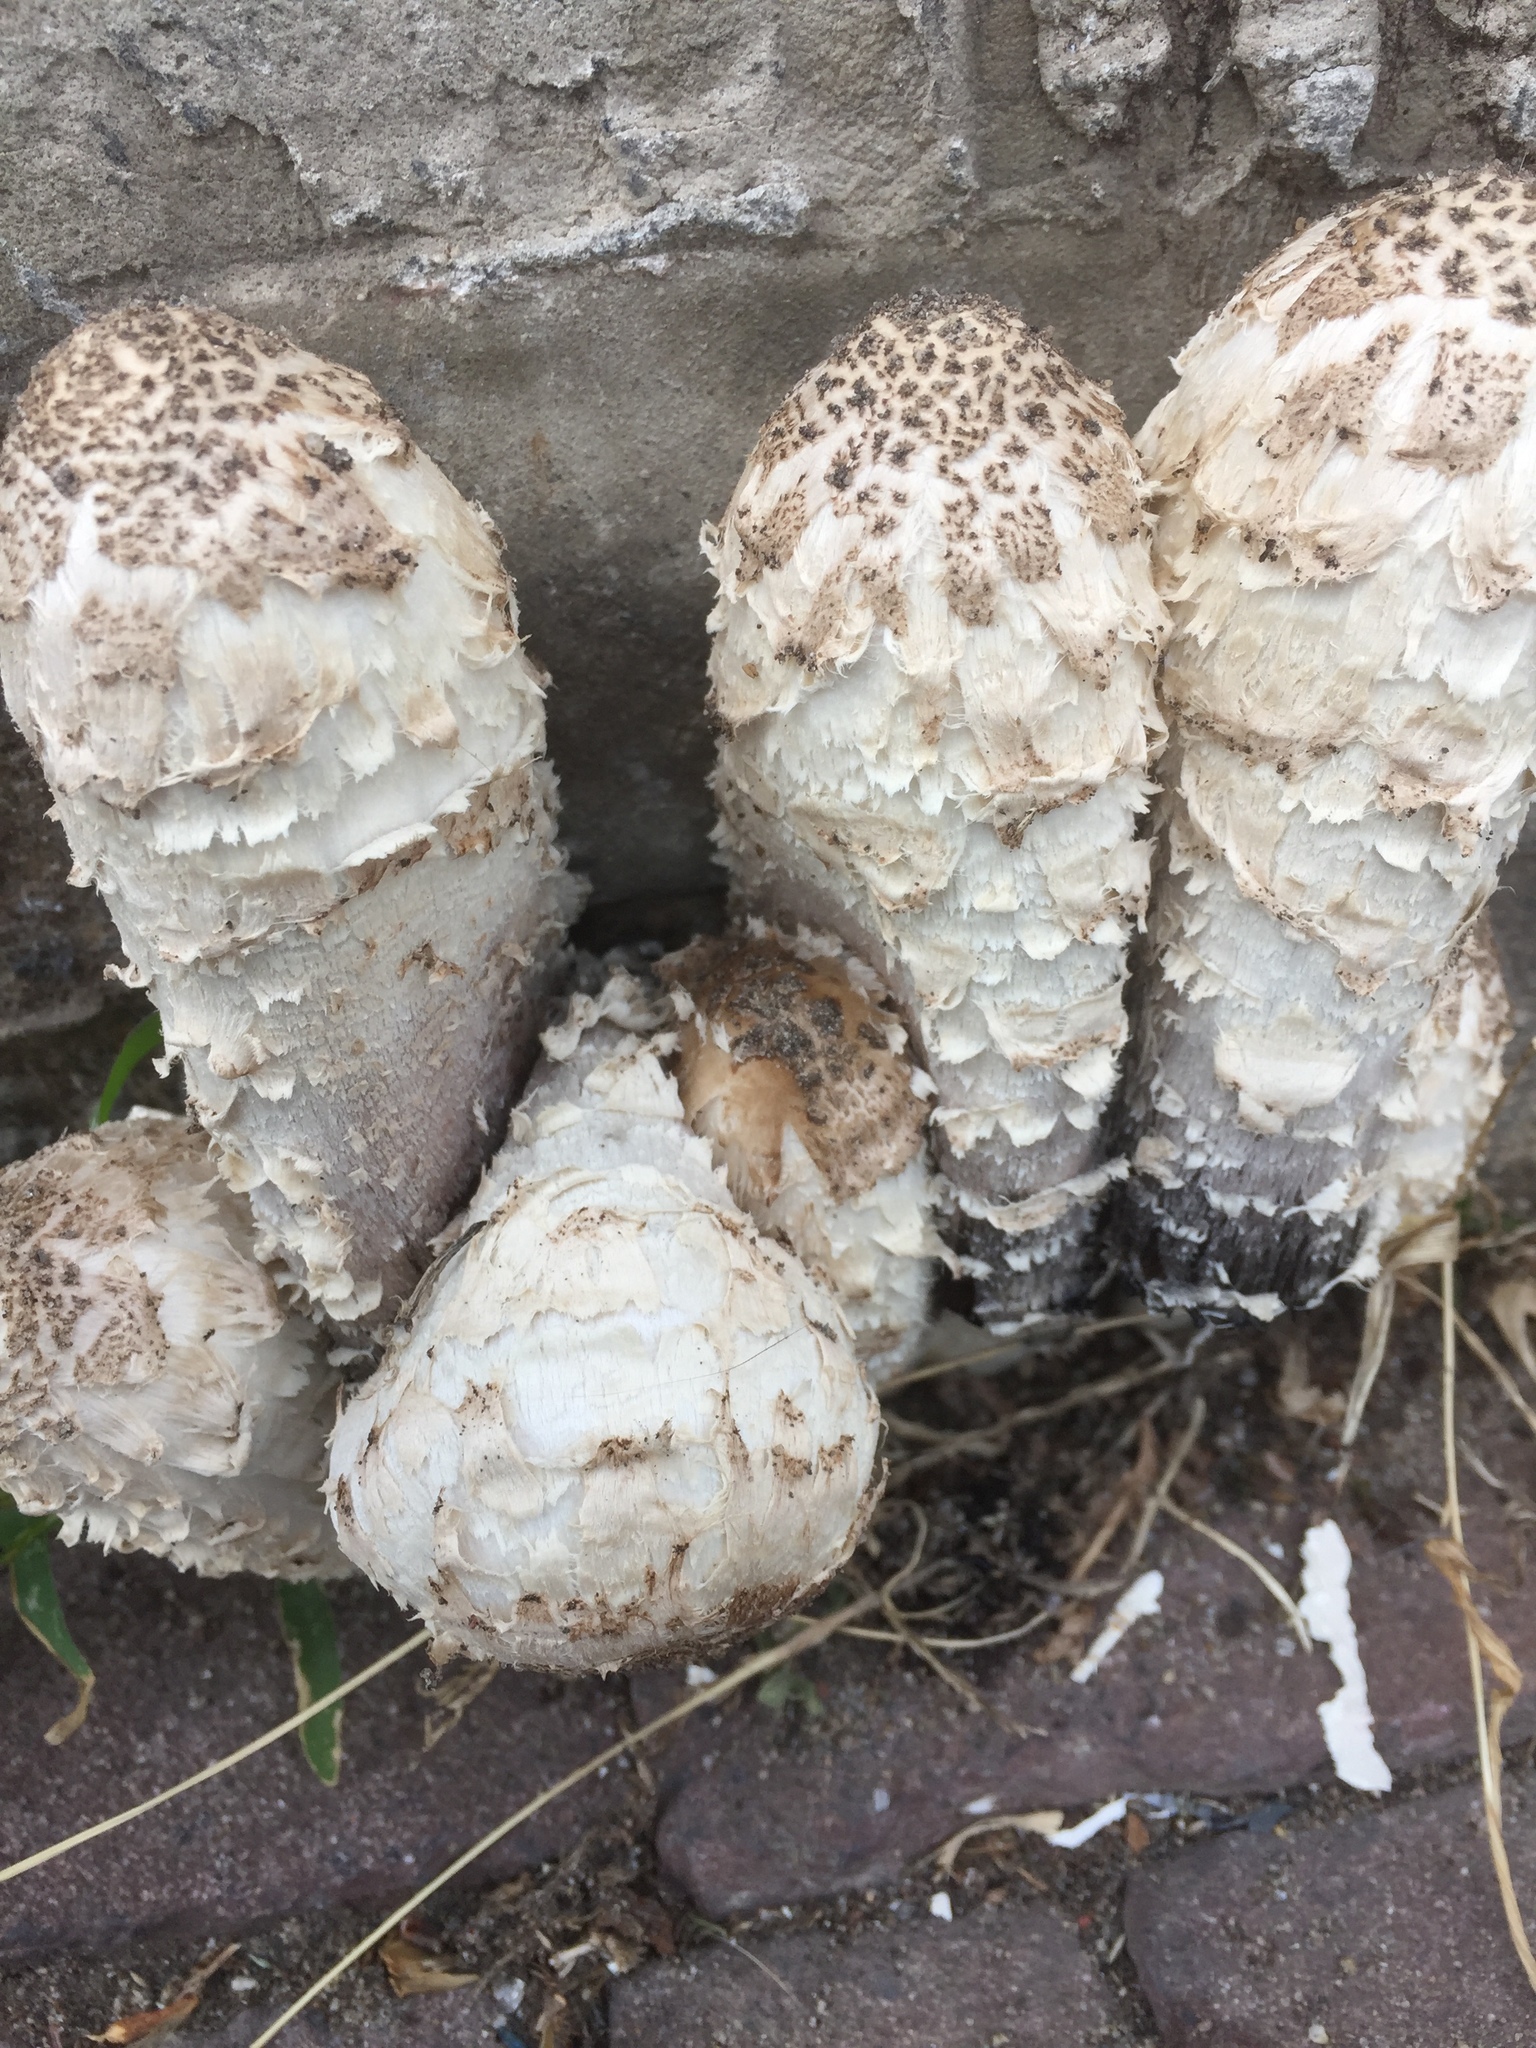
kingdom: Fungi
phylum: Basidiomycota
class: Agaricomycetes
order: Agaricales
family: Agaricaceae
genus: Coprinus
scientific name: Coprinus comatus
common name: Lawyer's wig
